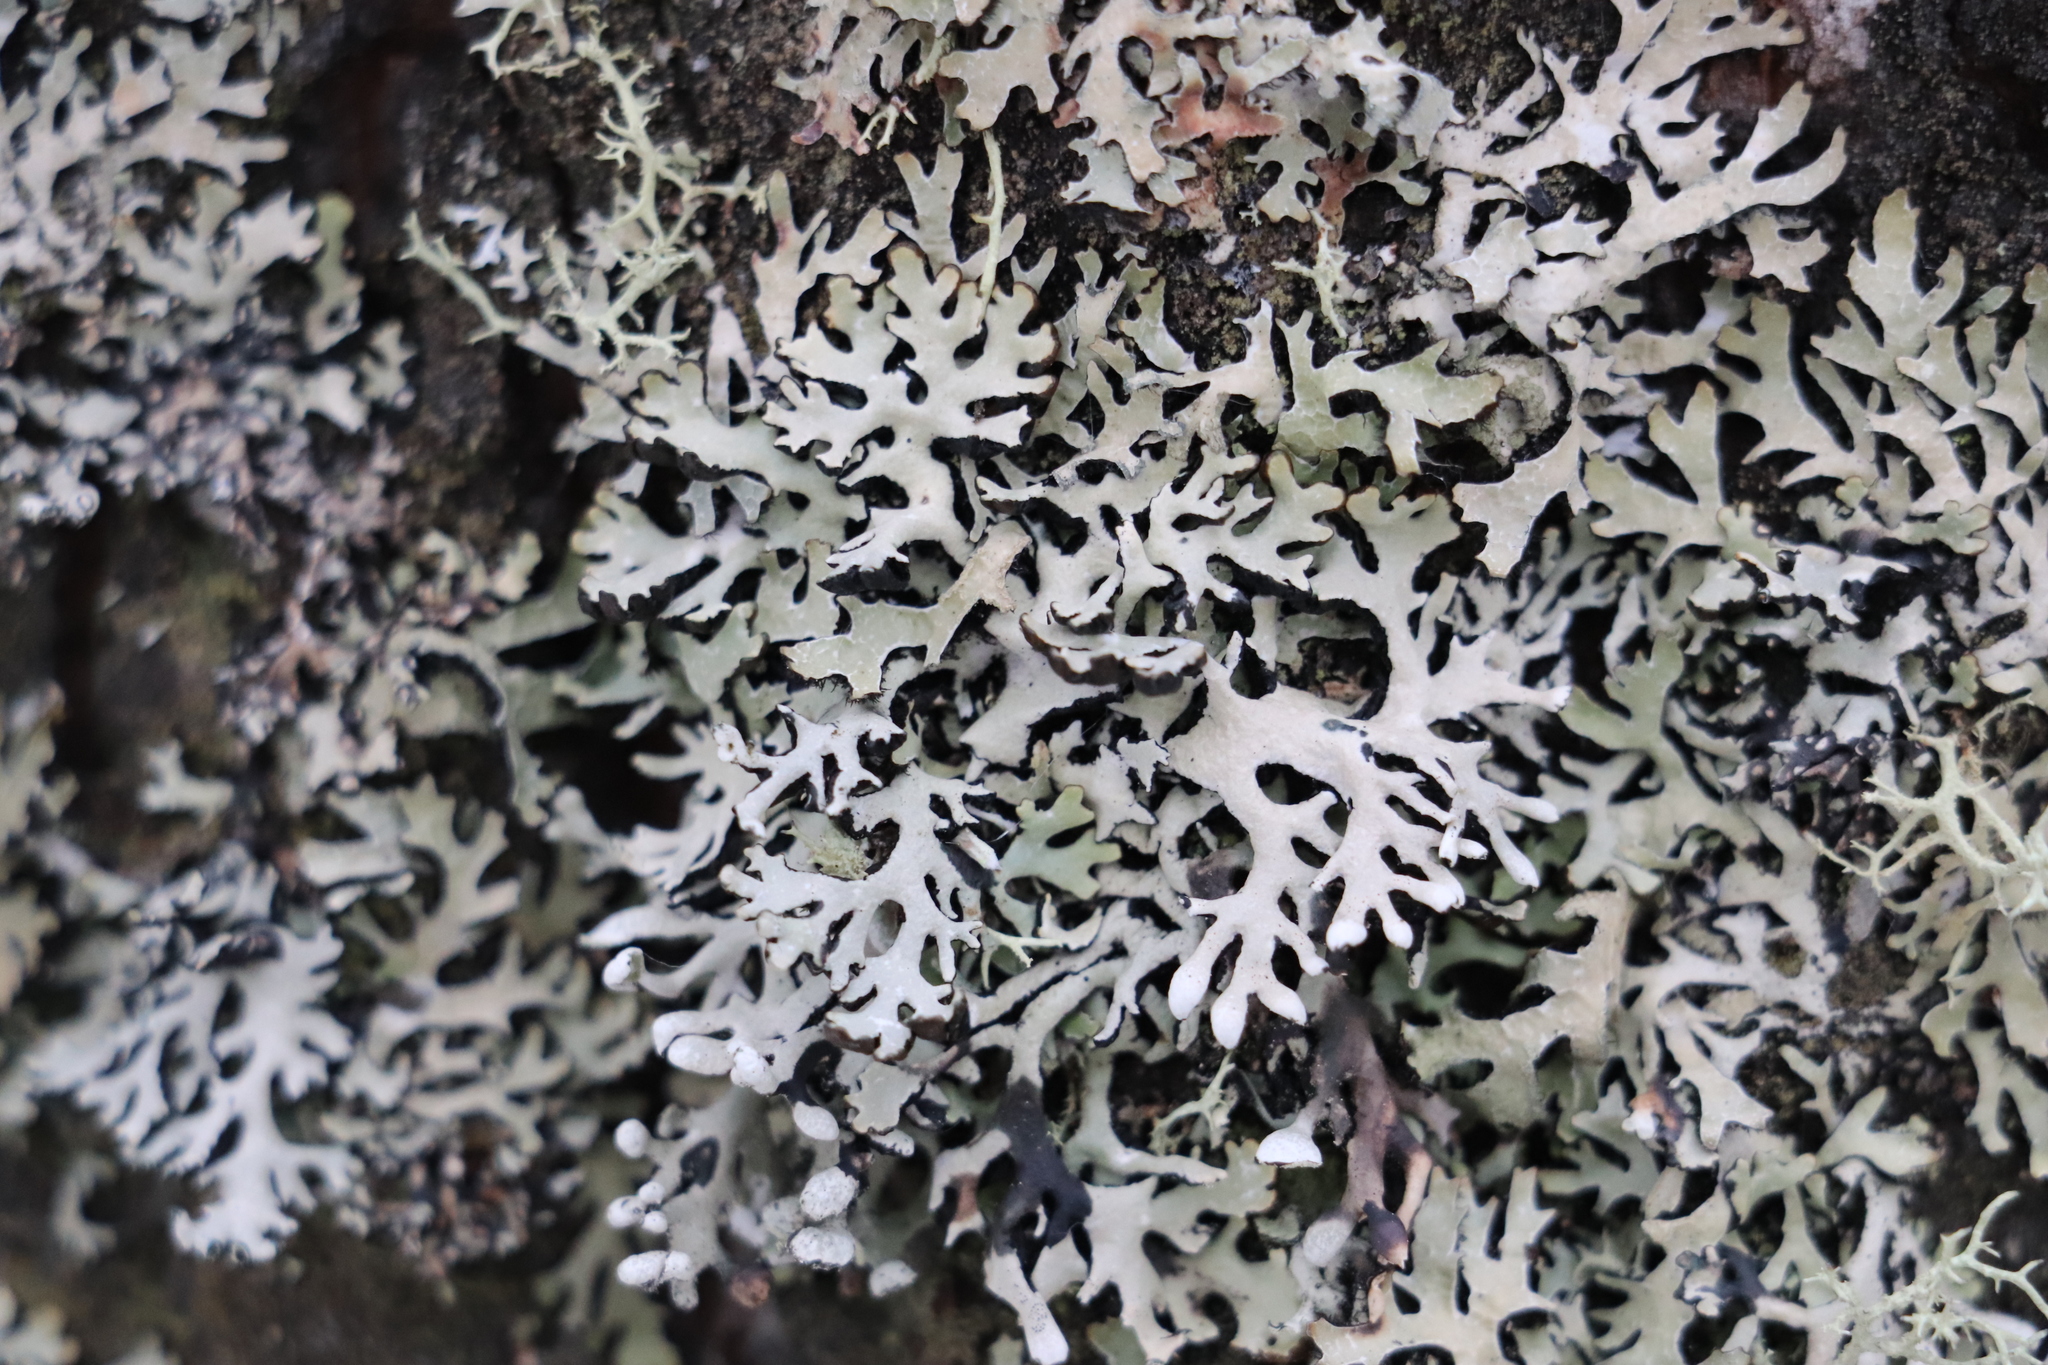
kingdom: Fungi
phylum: Ascomycota
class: Lecanoromycetes
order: Lecanorales
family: Parmeliaceae
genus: Parmelia
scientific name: Parmelia sulcata
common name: Netted shield lichen
